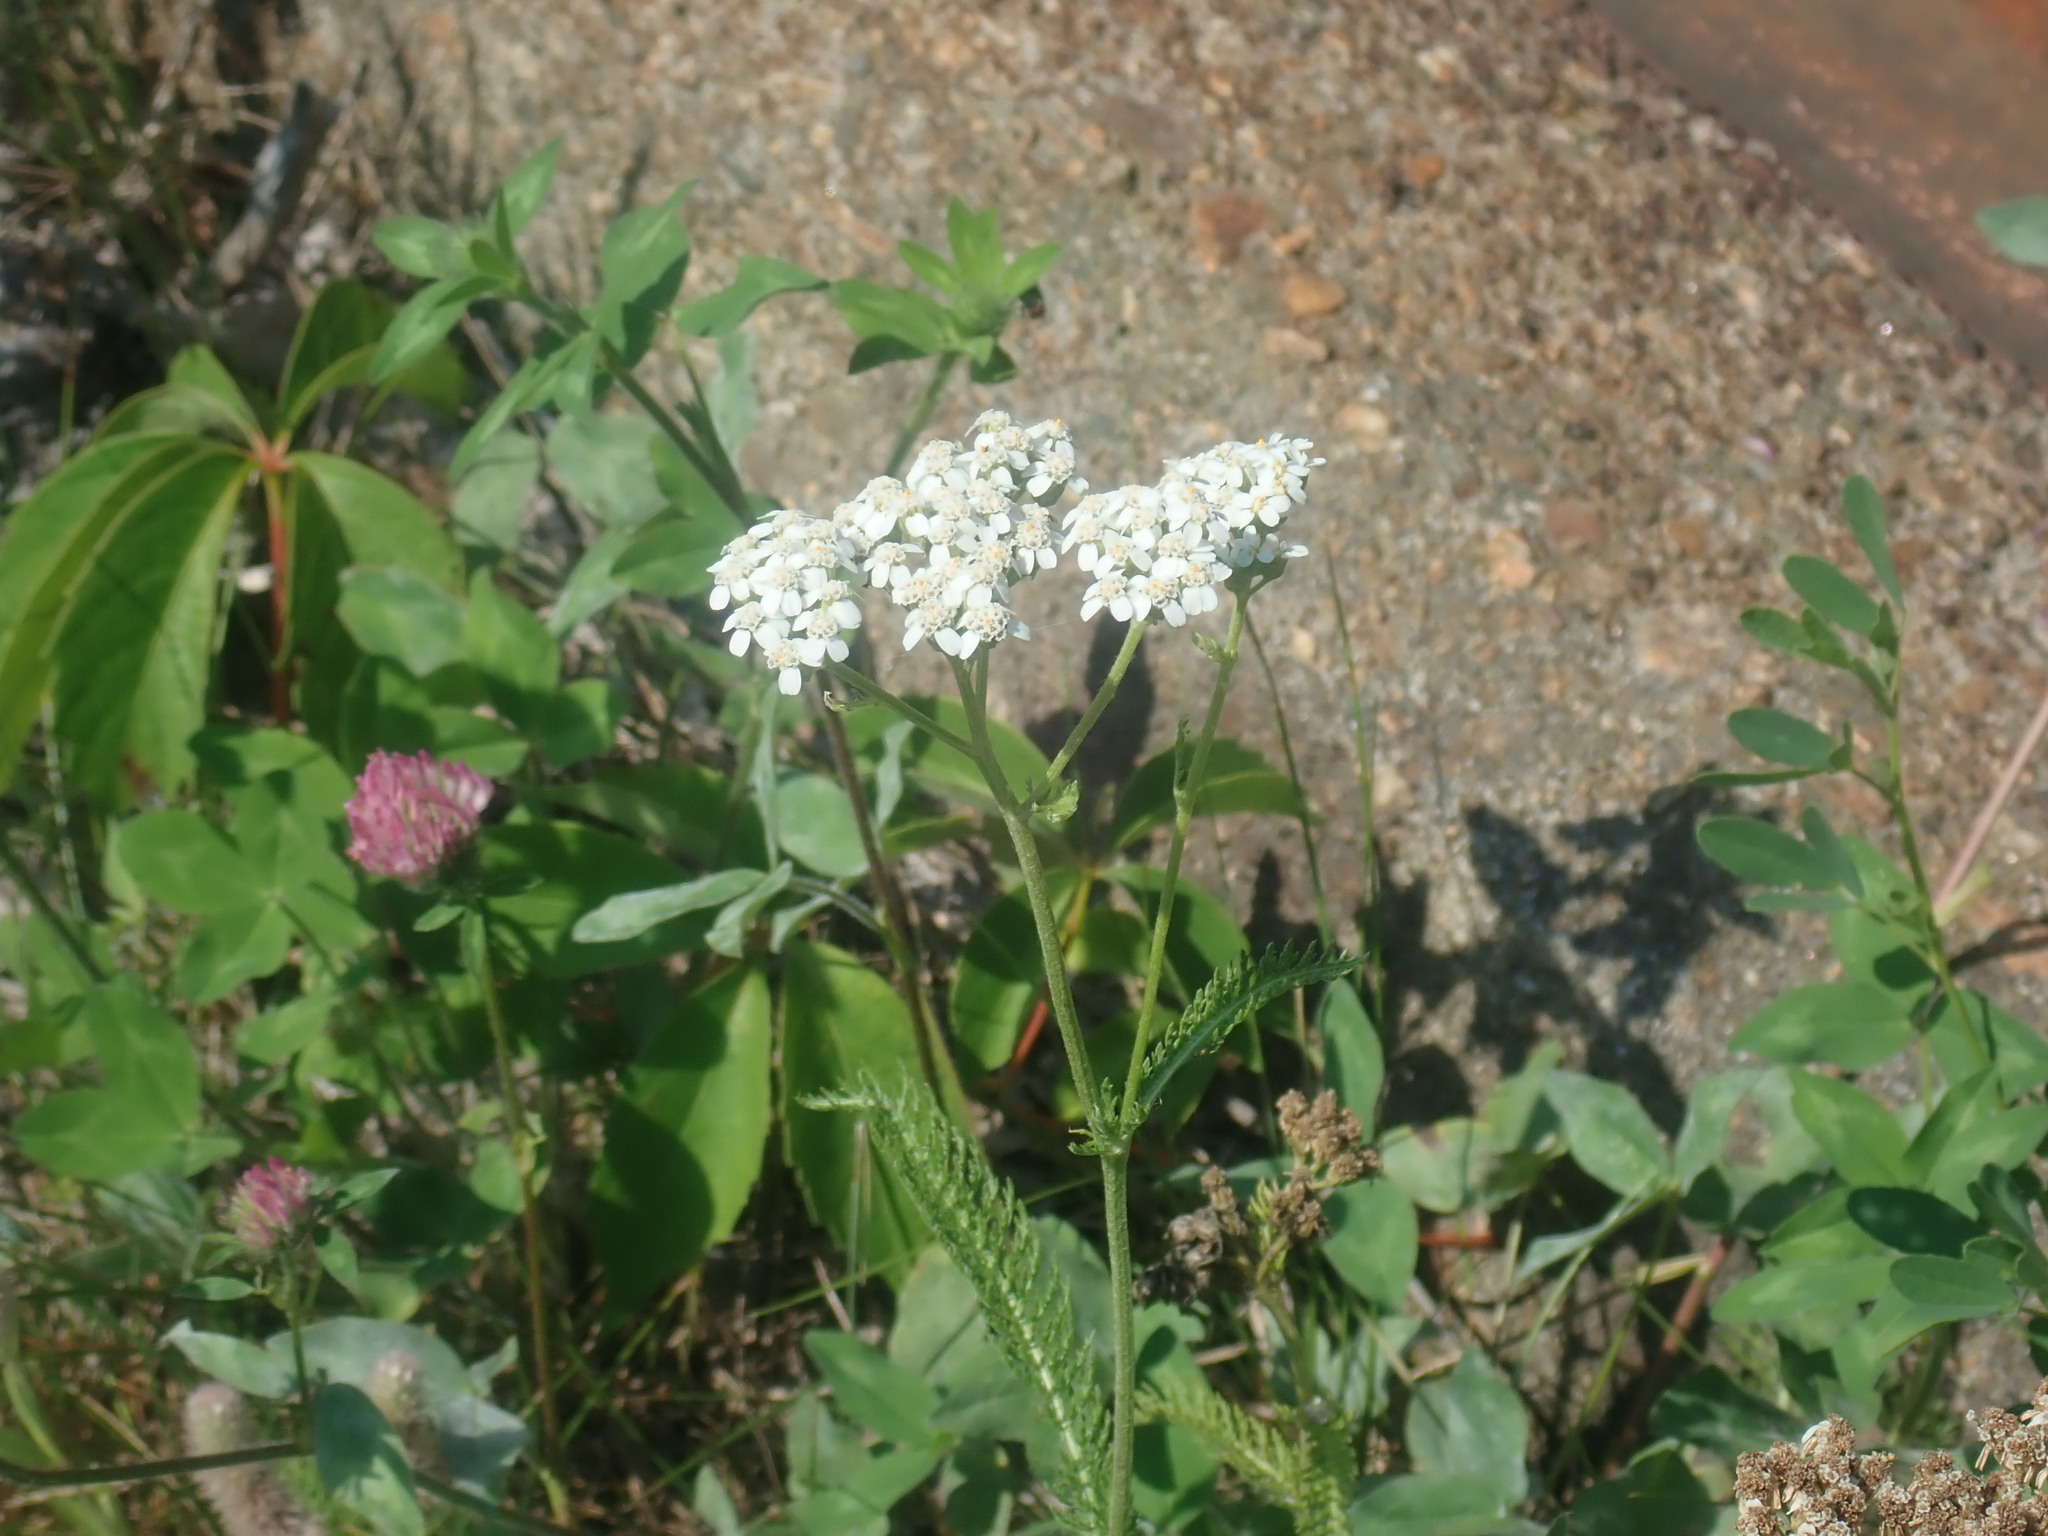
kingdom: Plantae
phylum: Tracheophyta
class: Magnoliopsida
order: Asterales
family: Asteraceae
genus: Achillea
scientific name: Achillea millefolium
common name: Yarrow
